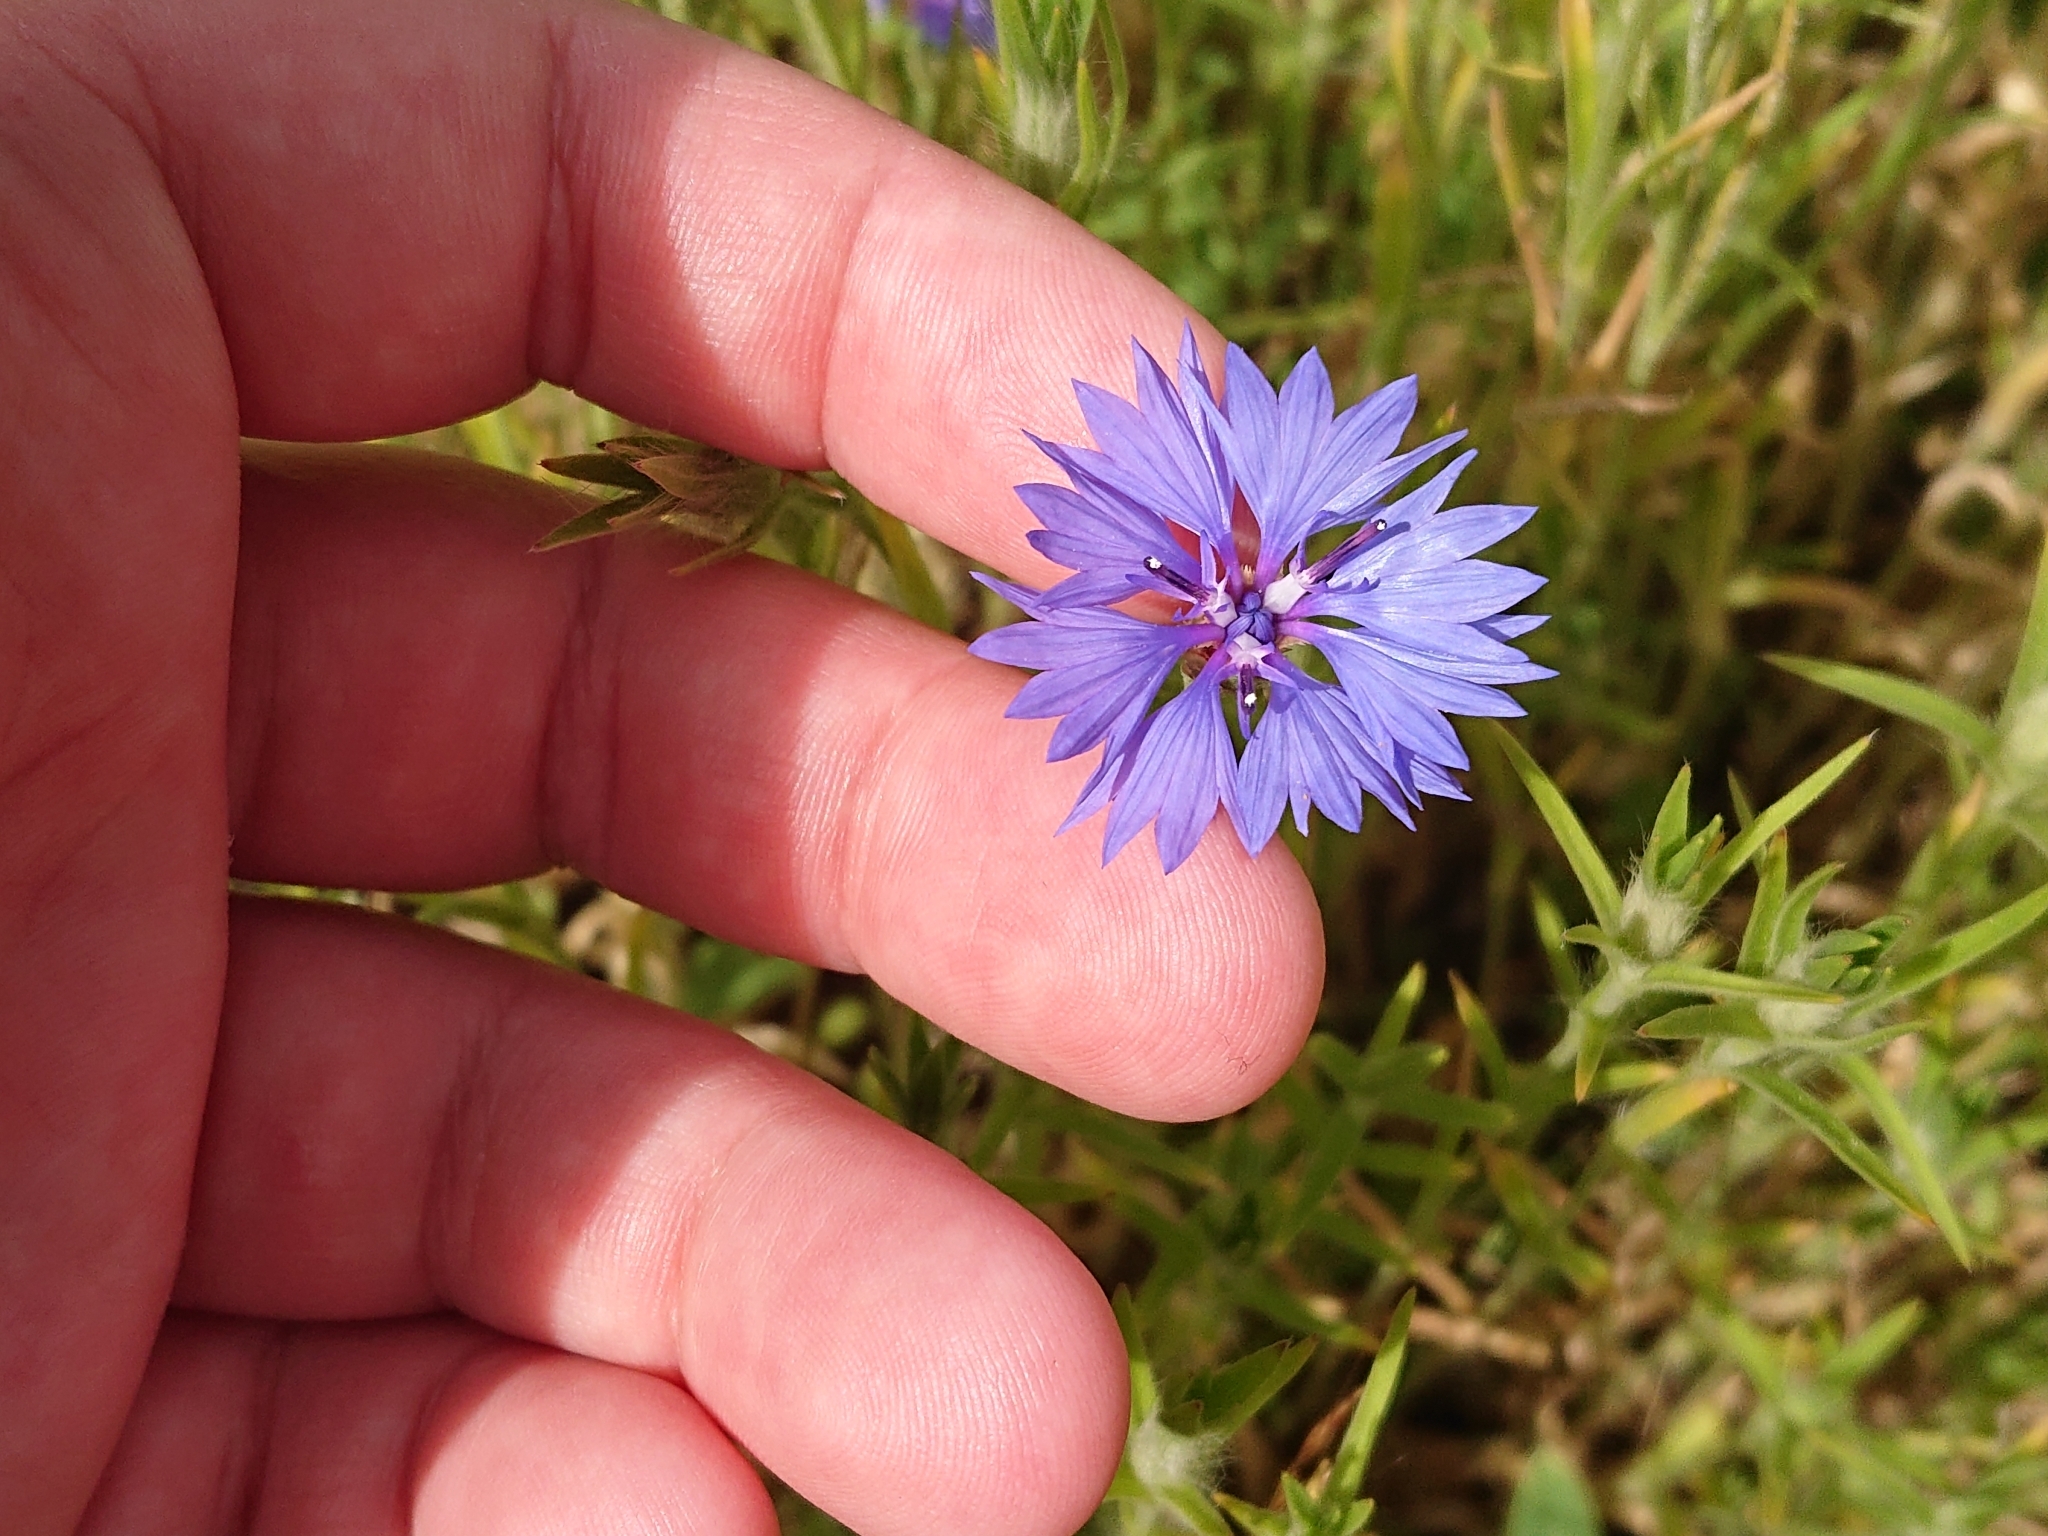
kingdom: Plantae
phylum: Tracheophyta
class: Magnoliopsida
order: Asterales
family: Asteraceae
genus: Centaurea
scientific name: Centaurea cyanus
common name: Cornflower
